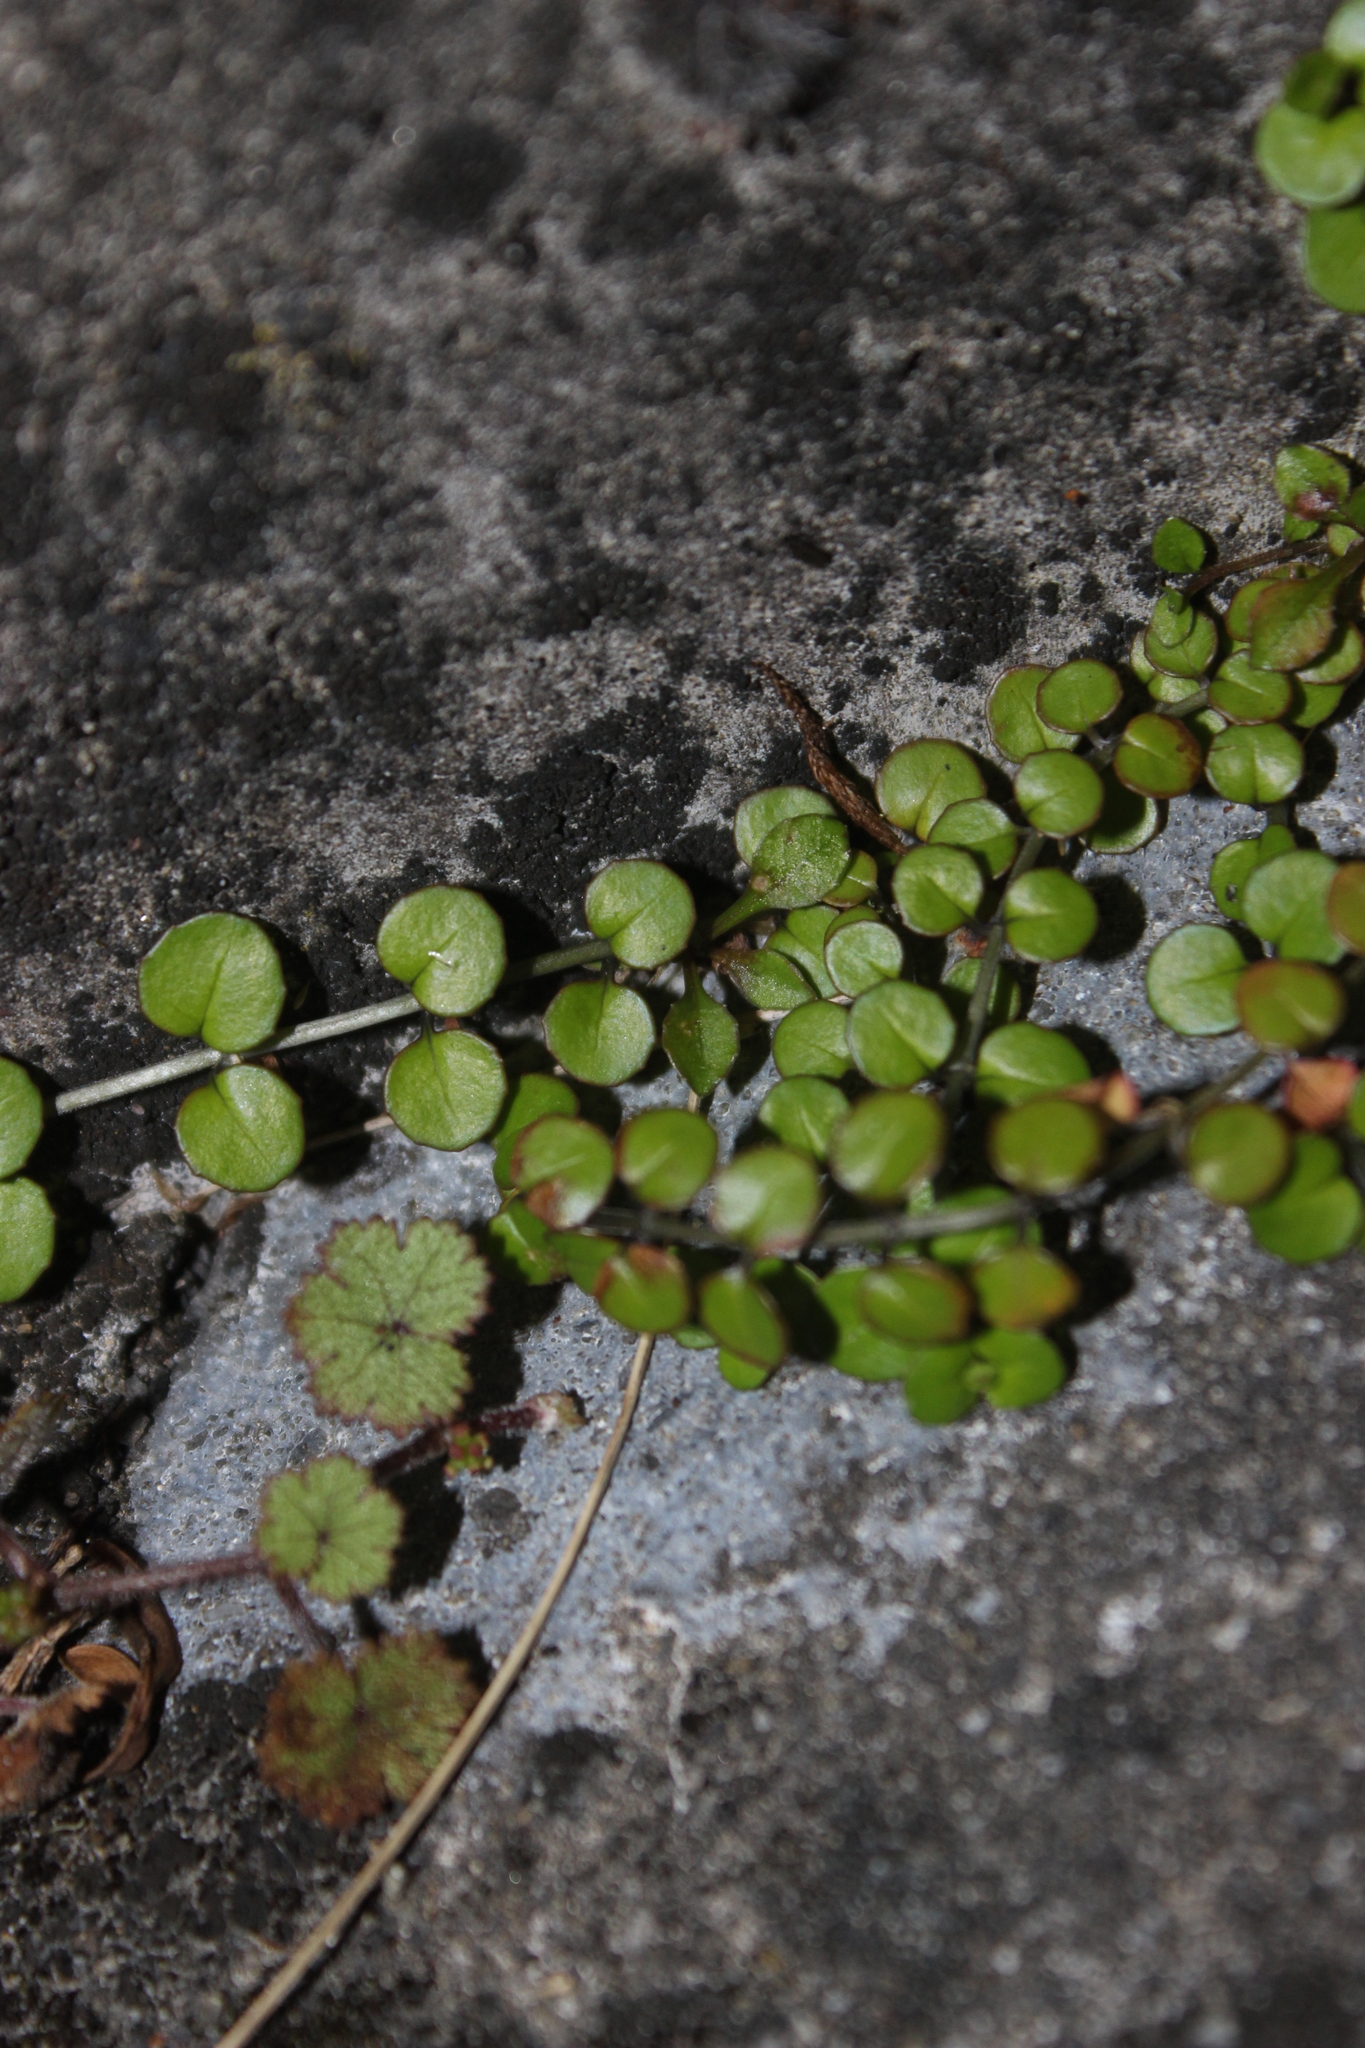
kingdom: Plantae
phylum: Tracheophyta
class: Magnoliopsida
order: Myrtales
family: Onagraceae
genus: Epilobium
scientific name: Epilobium nummularifolium
